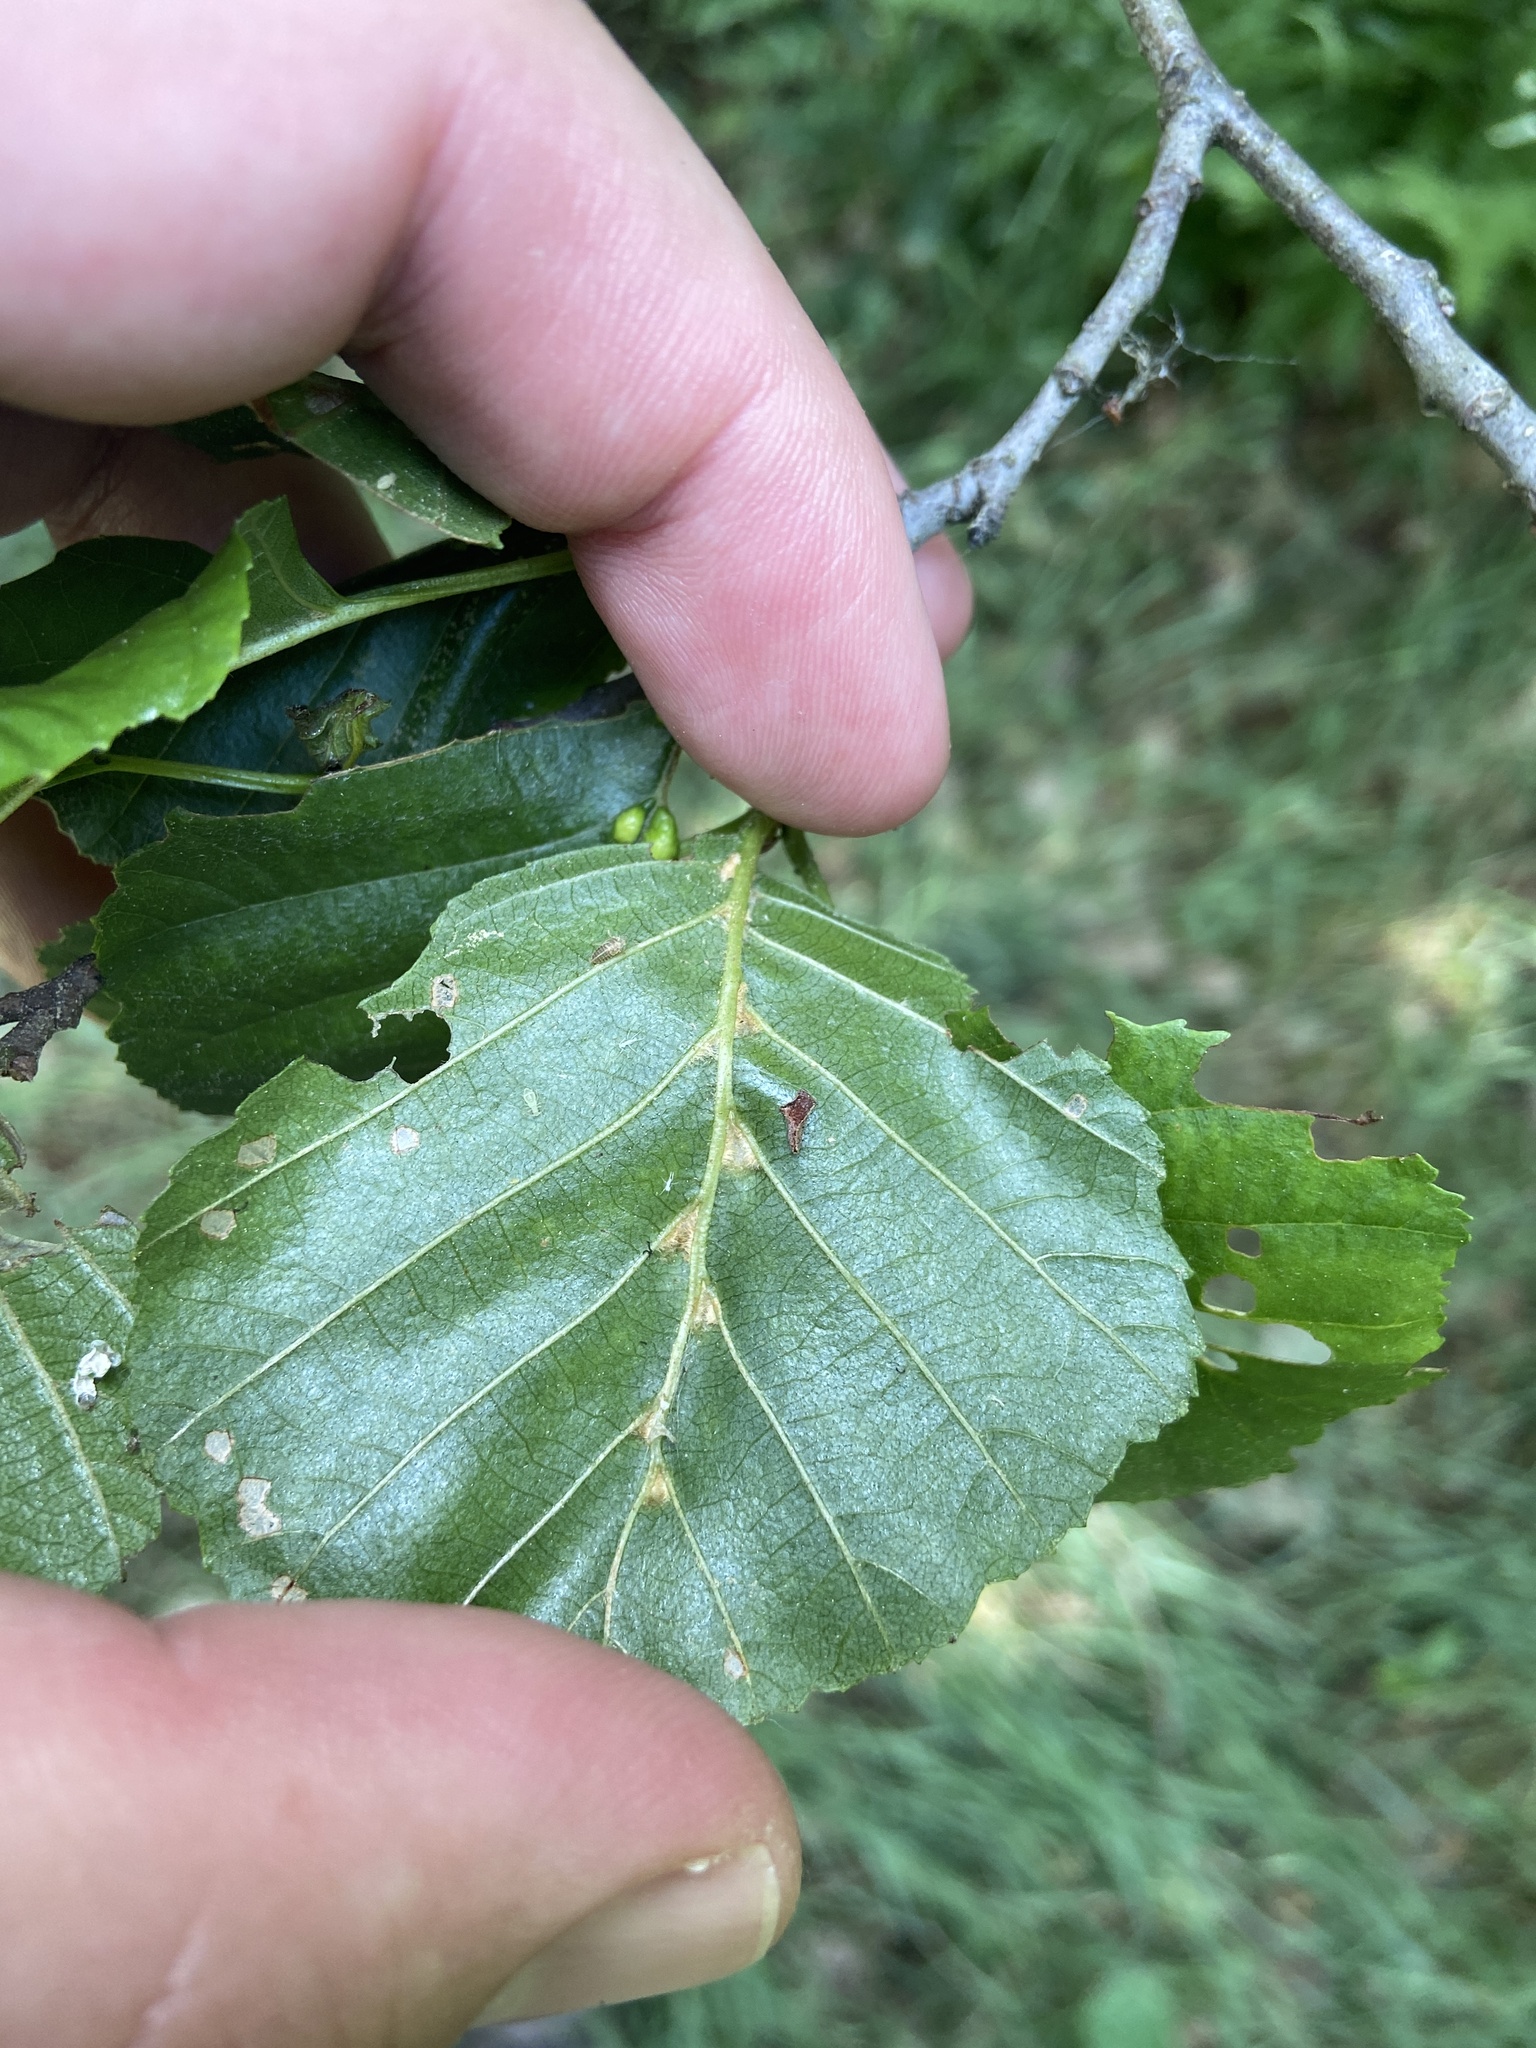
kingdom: Animalia
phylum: Arthropoda
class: Arachnida
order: Trombidiformes
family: Eriophyidae
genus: Eriophyes
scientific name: Eriophyes inangulis
